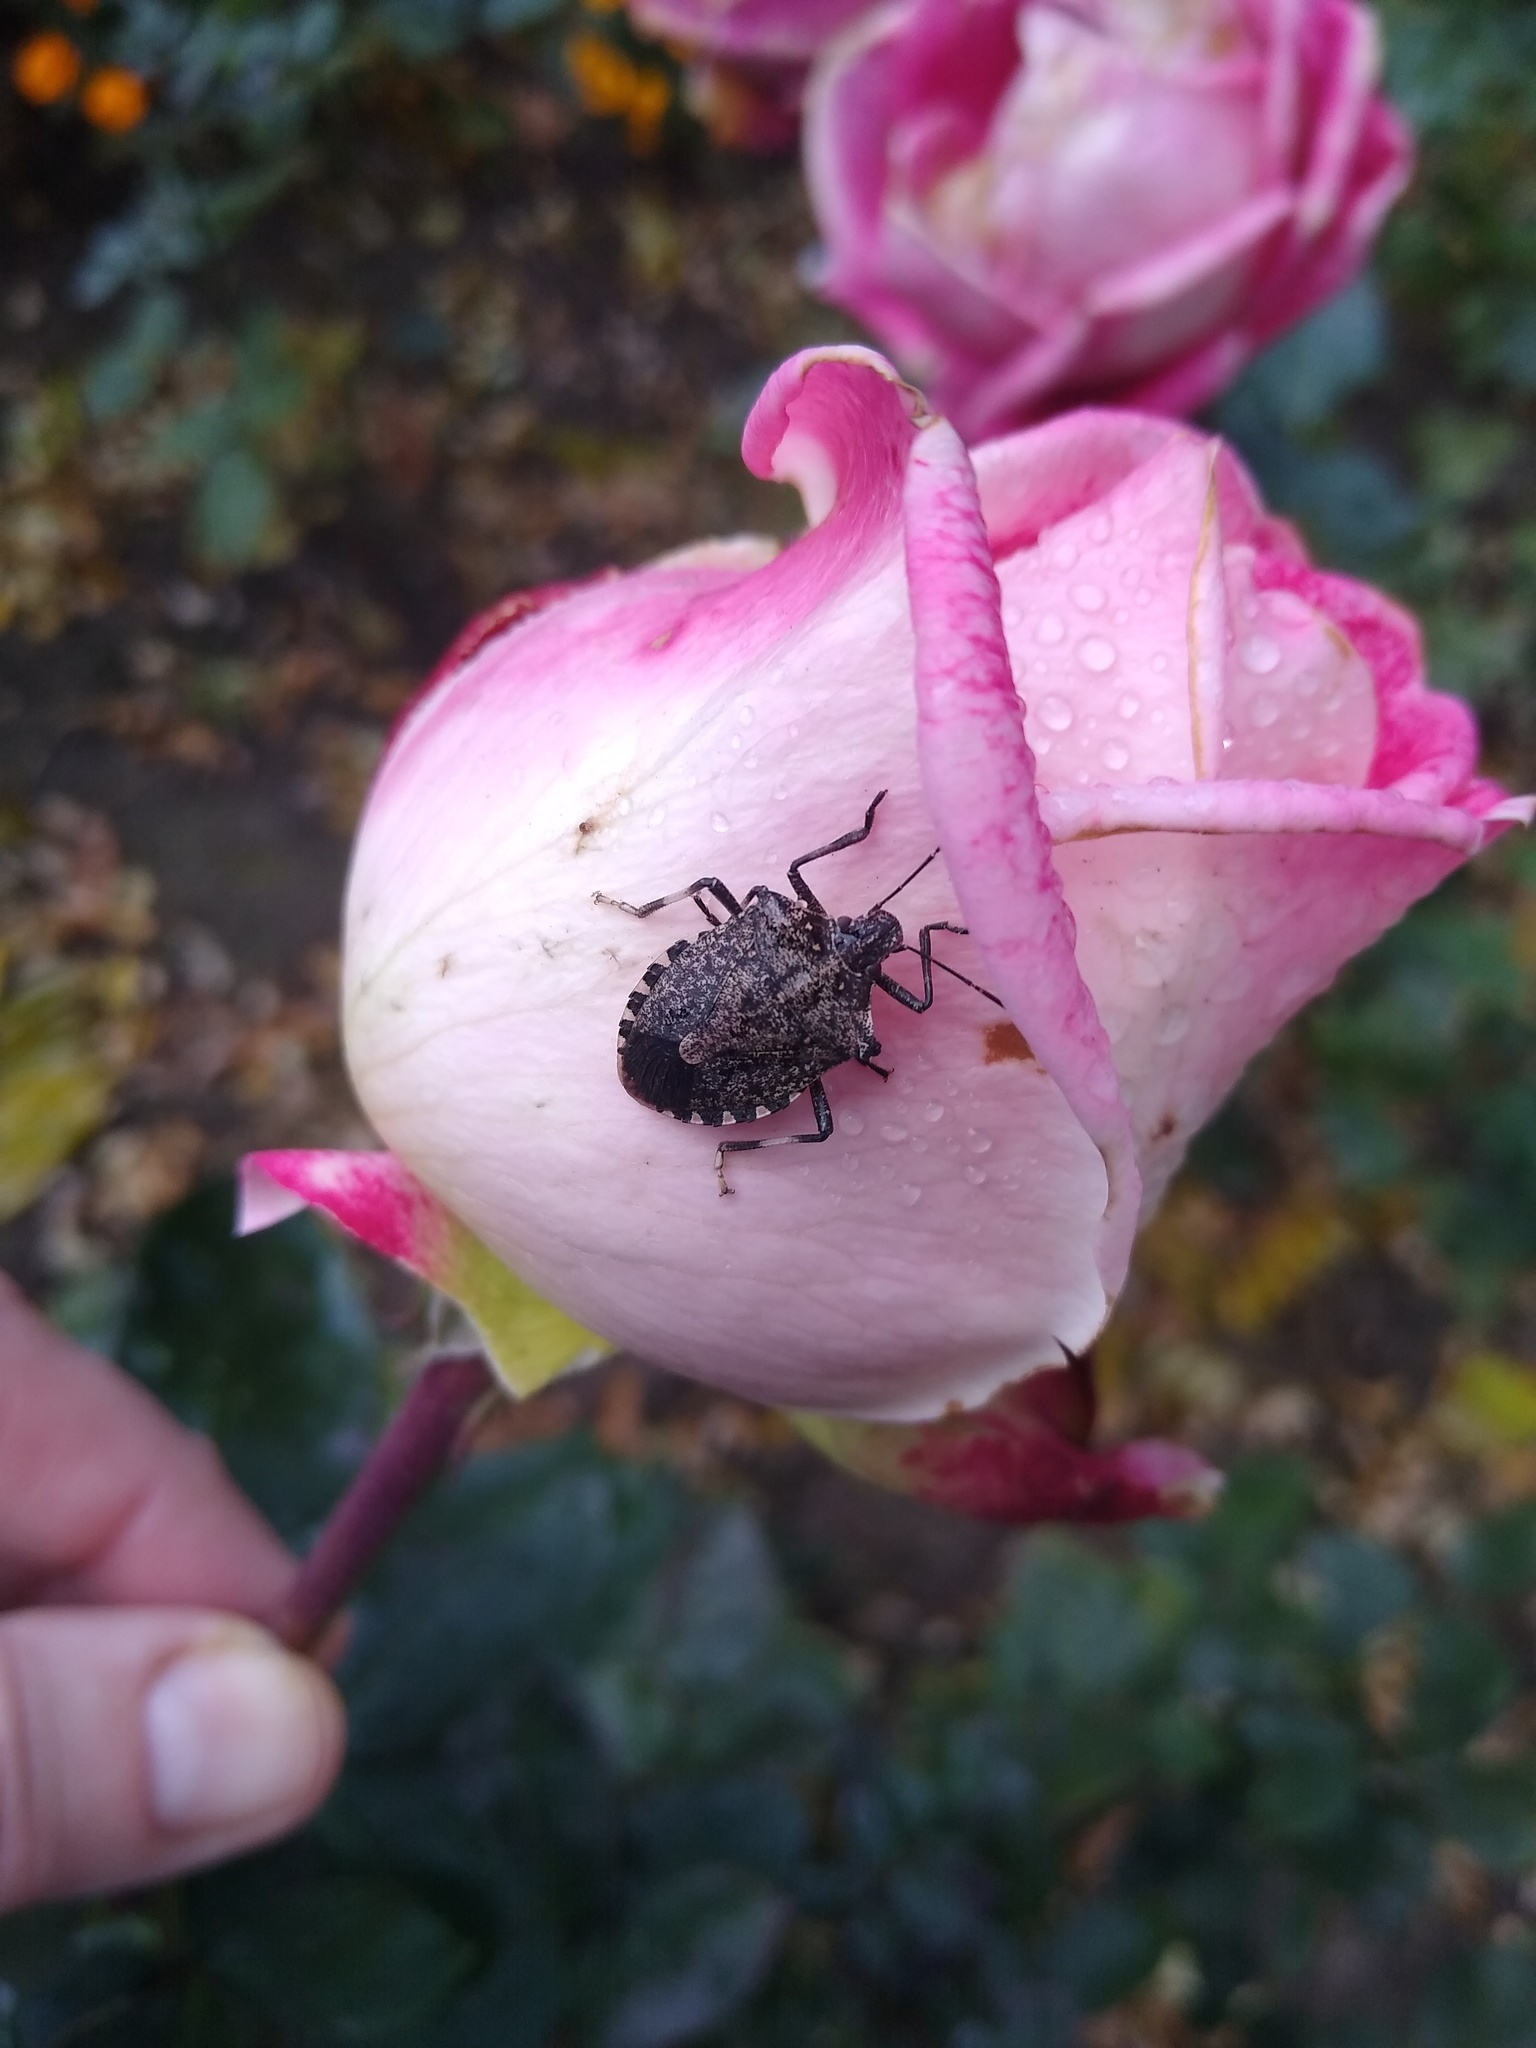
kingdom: Animalia
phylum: Arthropoda
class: Insecta
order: Hemiptera
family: Pentatomidae
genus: Halyomorpha
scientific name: Halyomorpha halys
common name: Brown marmorated stink bug
